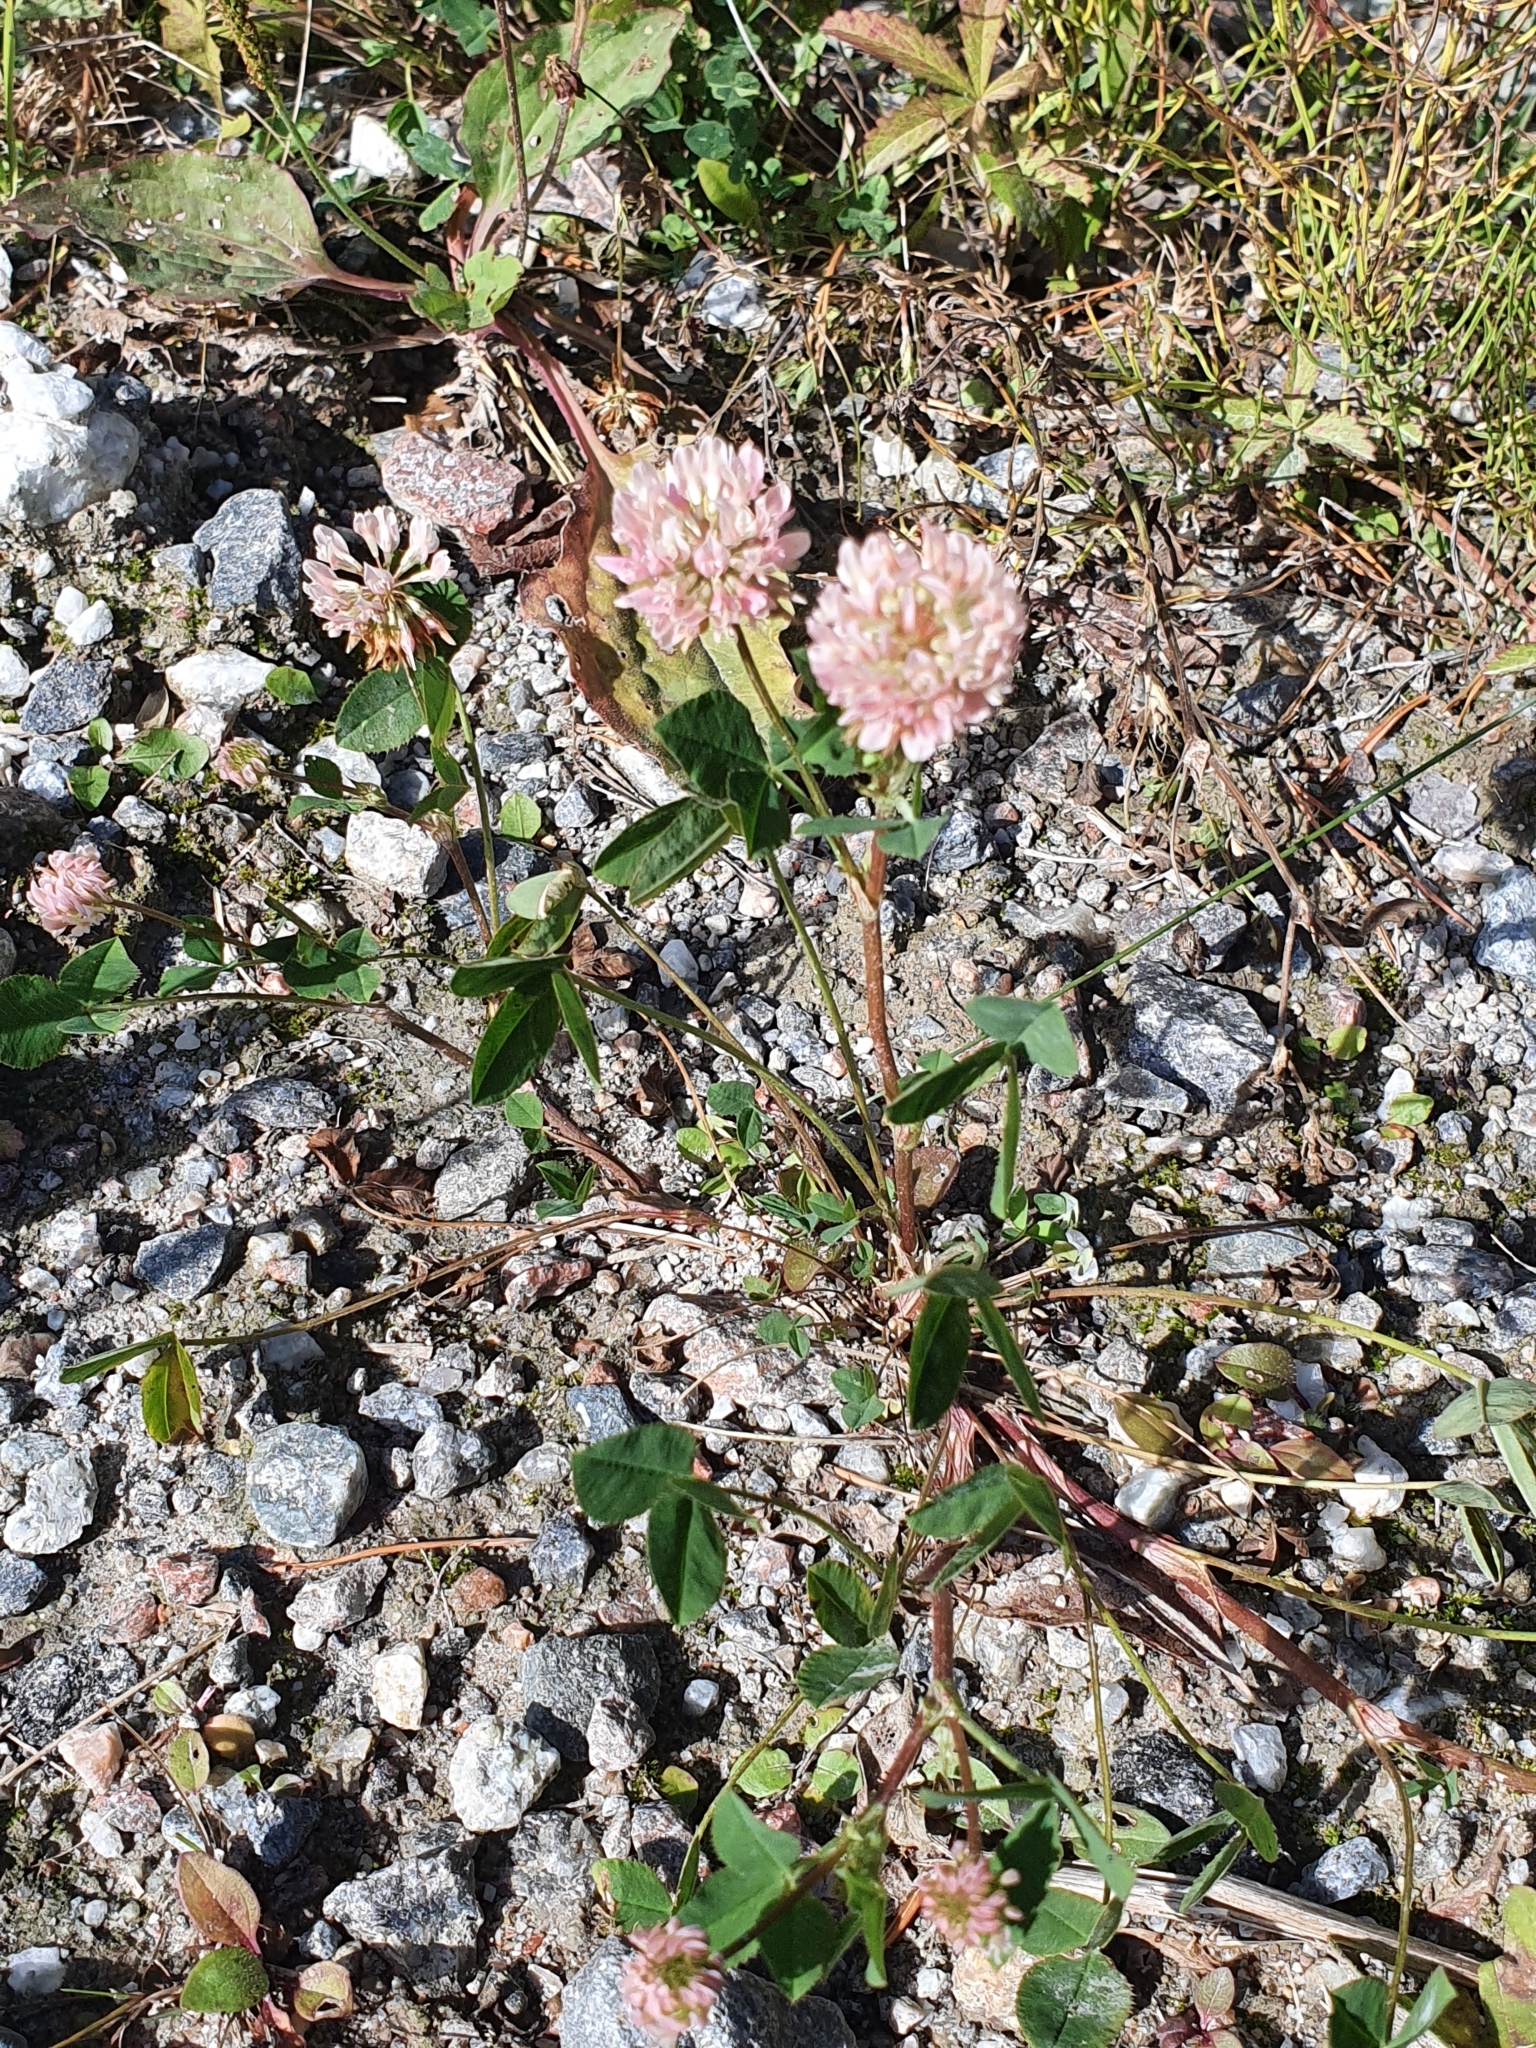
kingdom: Plantae
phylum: Tracheophyta
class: Magnoliopsida
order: Fabales
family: Fabaceae
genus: Trifolium
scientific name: Trifolium hybridum
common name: Alsike clover
